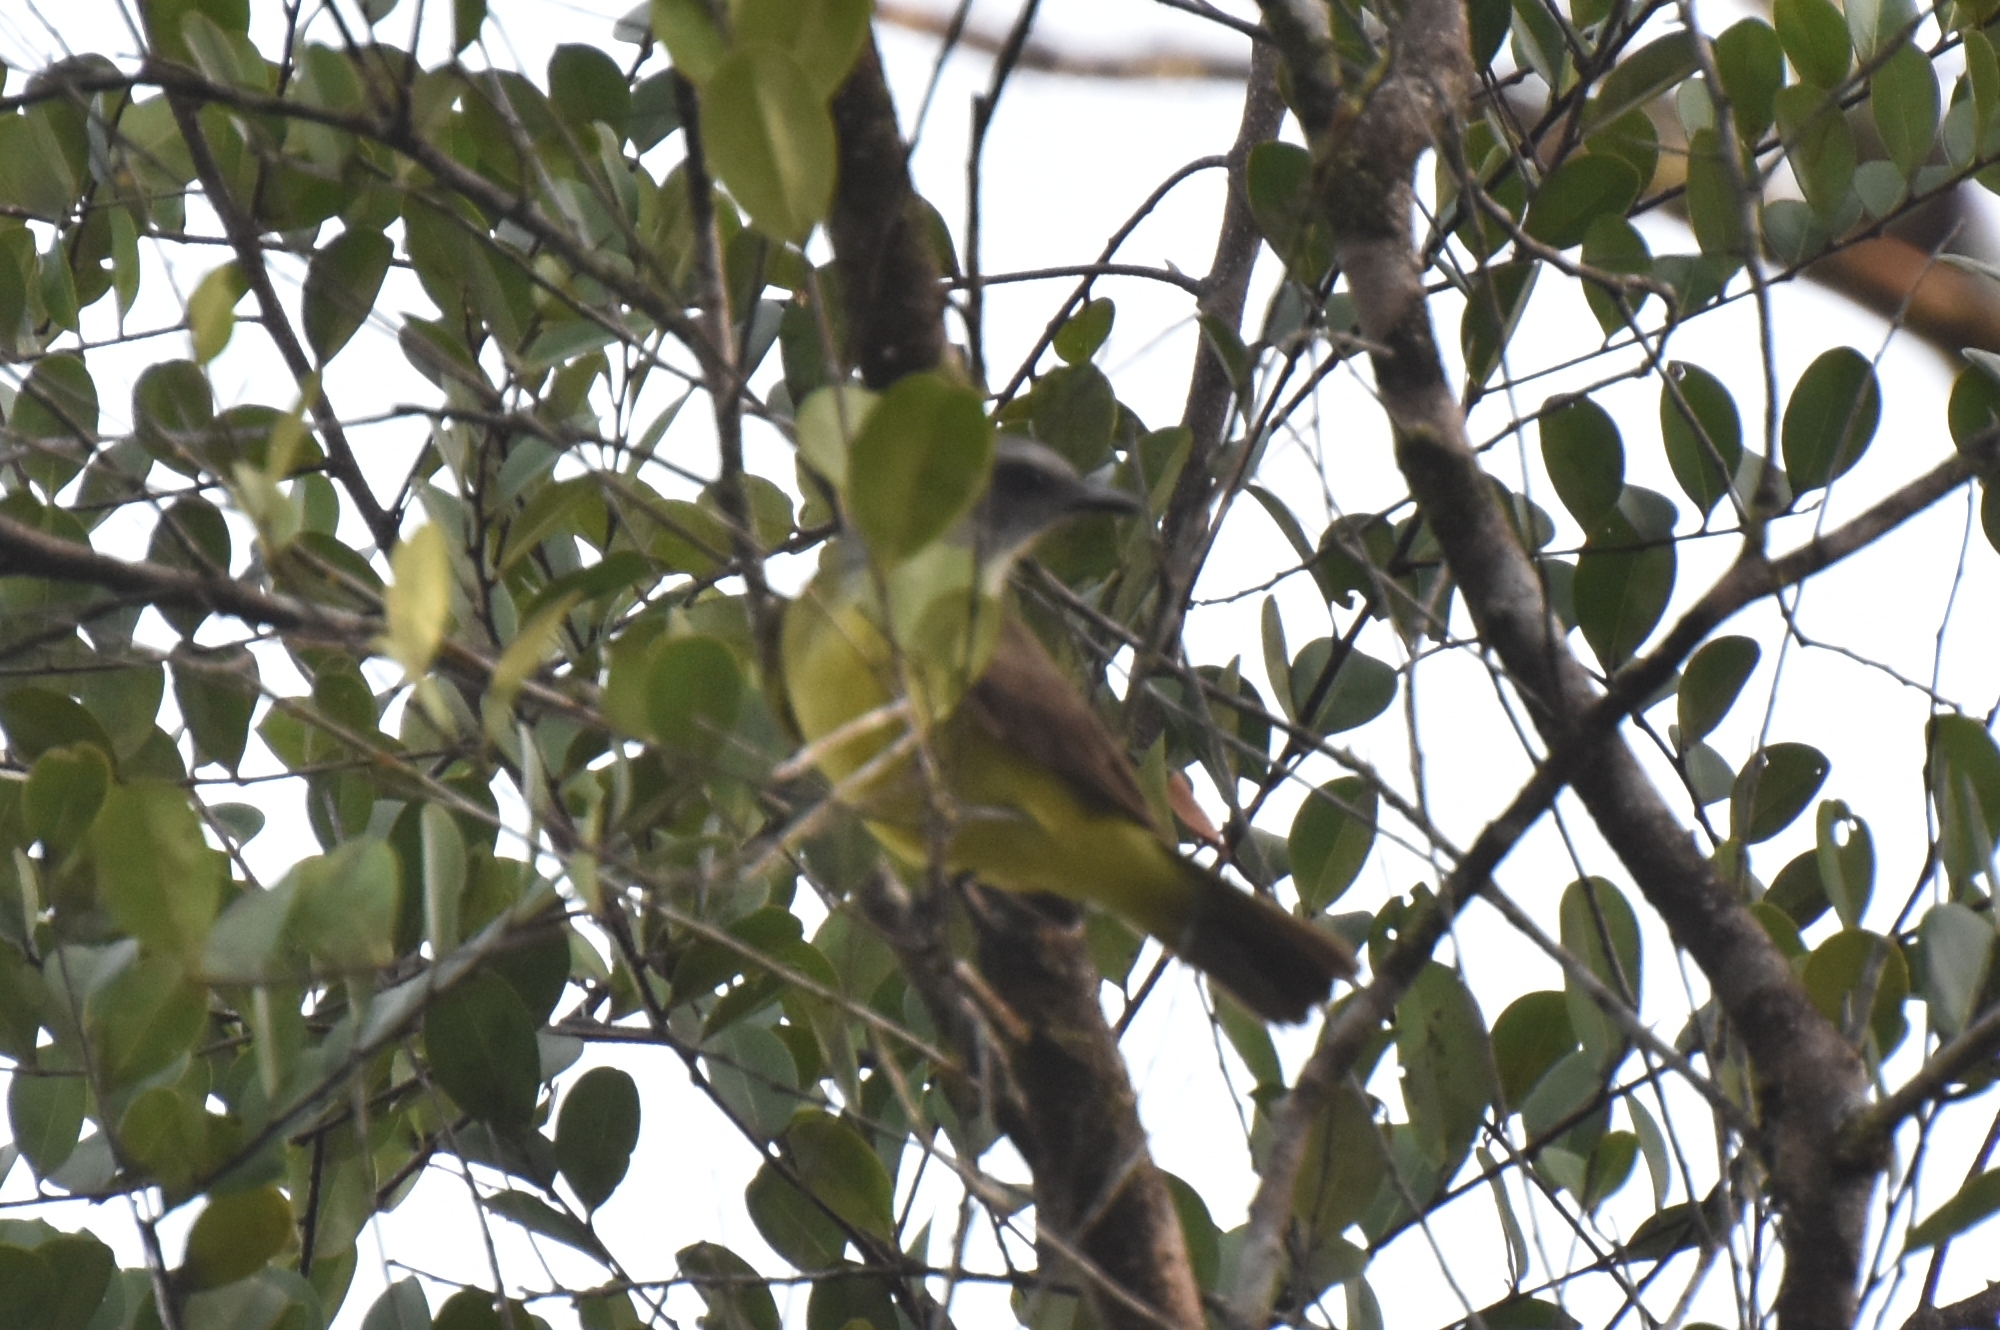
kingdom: Animalia
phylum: Chordata
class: Aves
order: Passeriformes
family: Tyrannidae
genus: Tyrannopsis
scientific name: Tyrannopsis sulphurea
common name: Sulphury flycatcher
